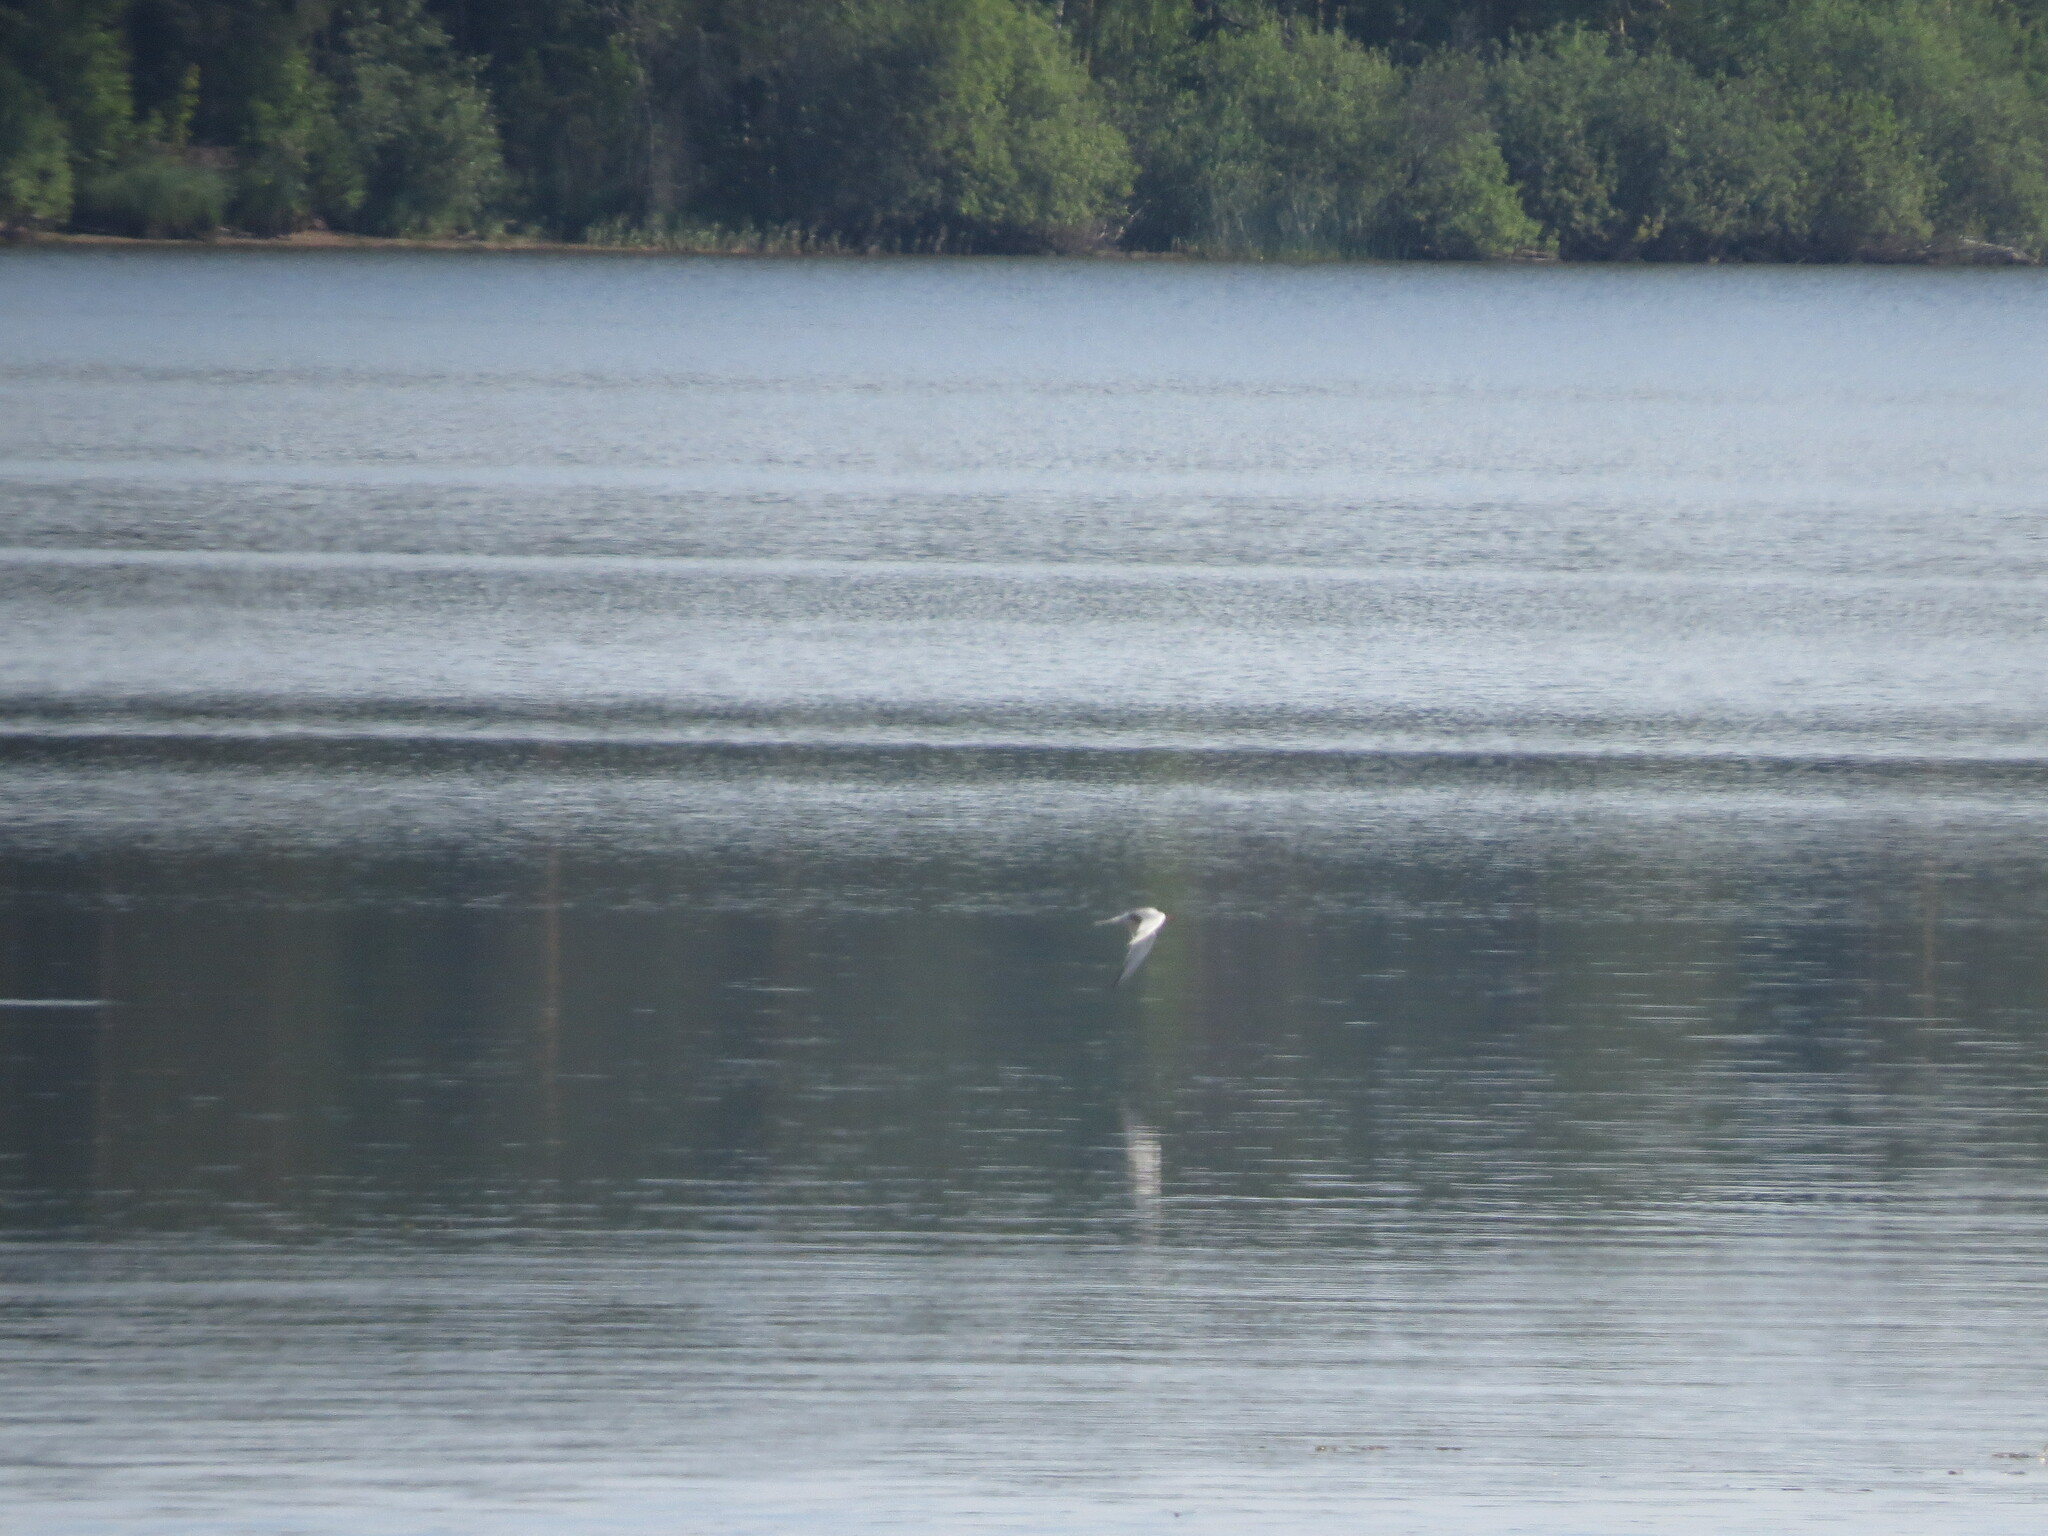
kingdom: Animalia
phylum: Chordata
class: Aves
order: Charadriiformes
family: Laridae
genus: Sterna
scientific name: Sterna hirundo
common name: Common tern
